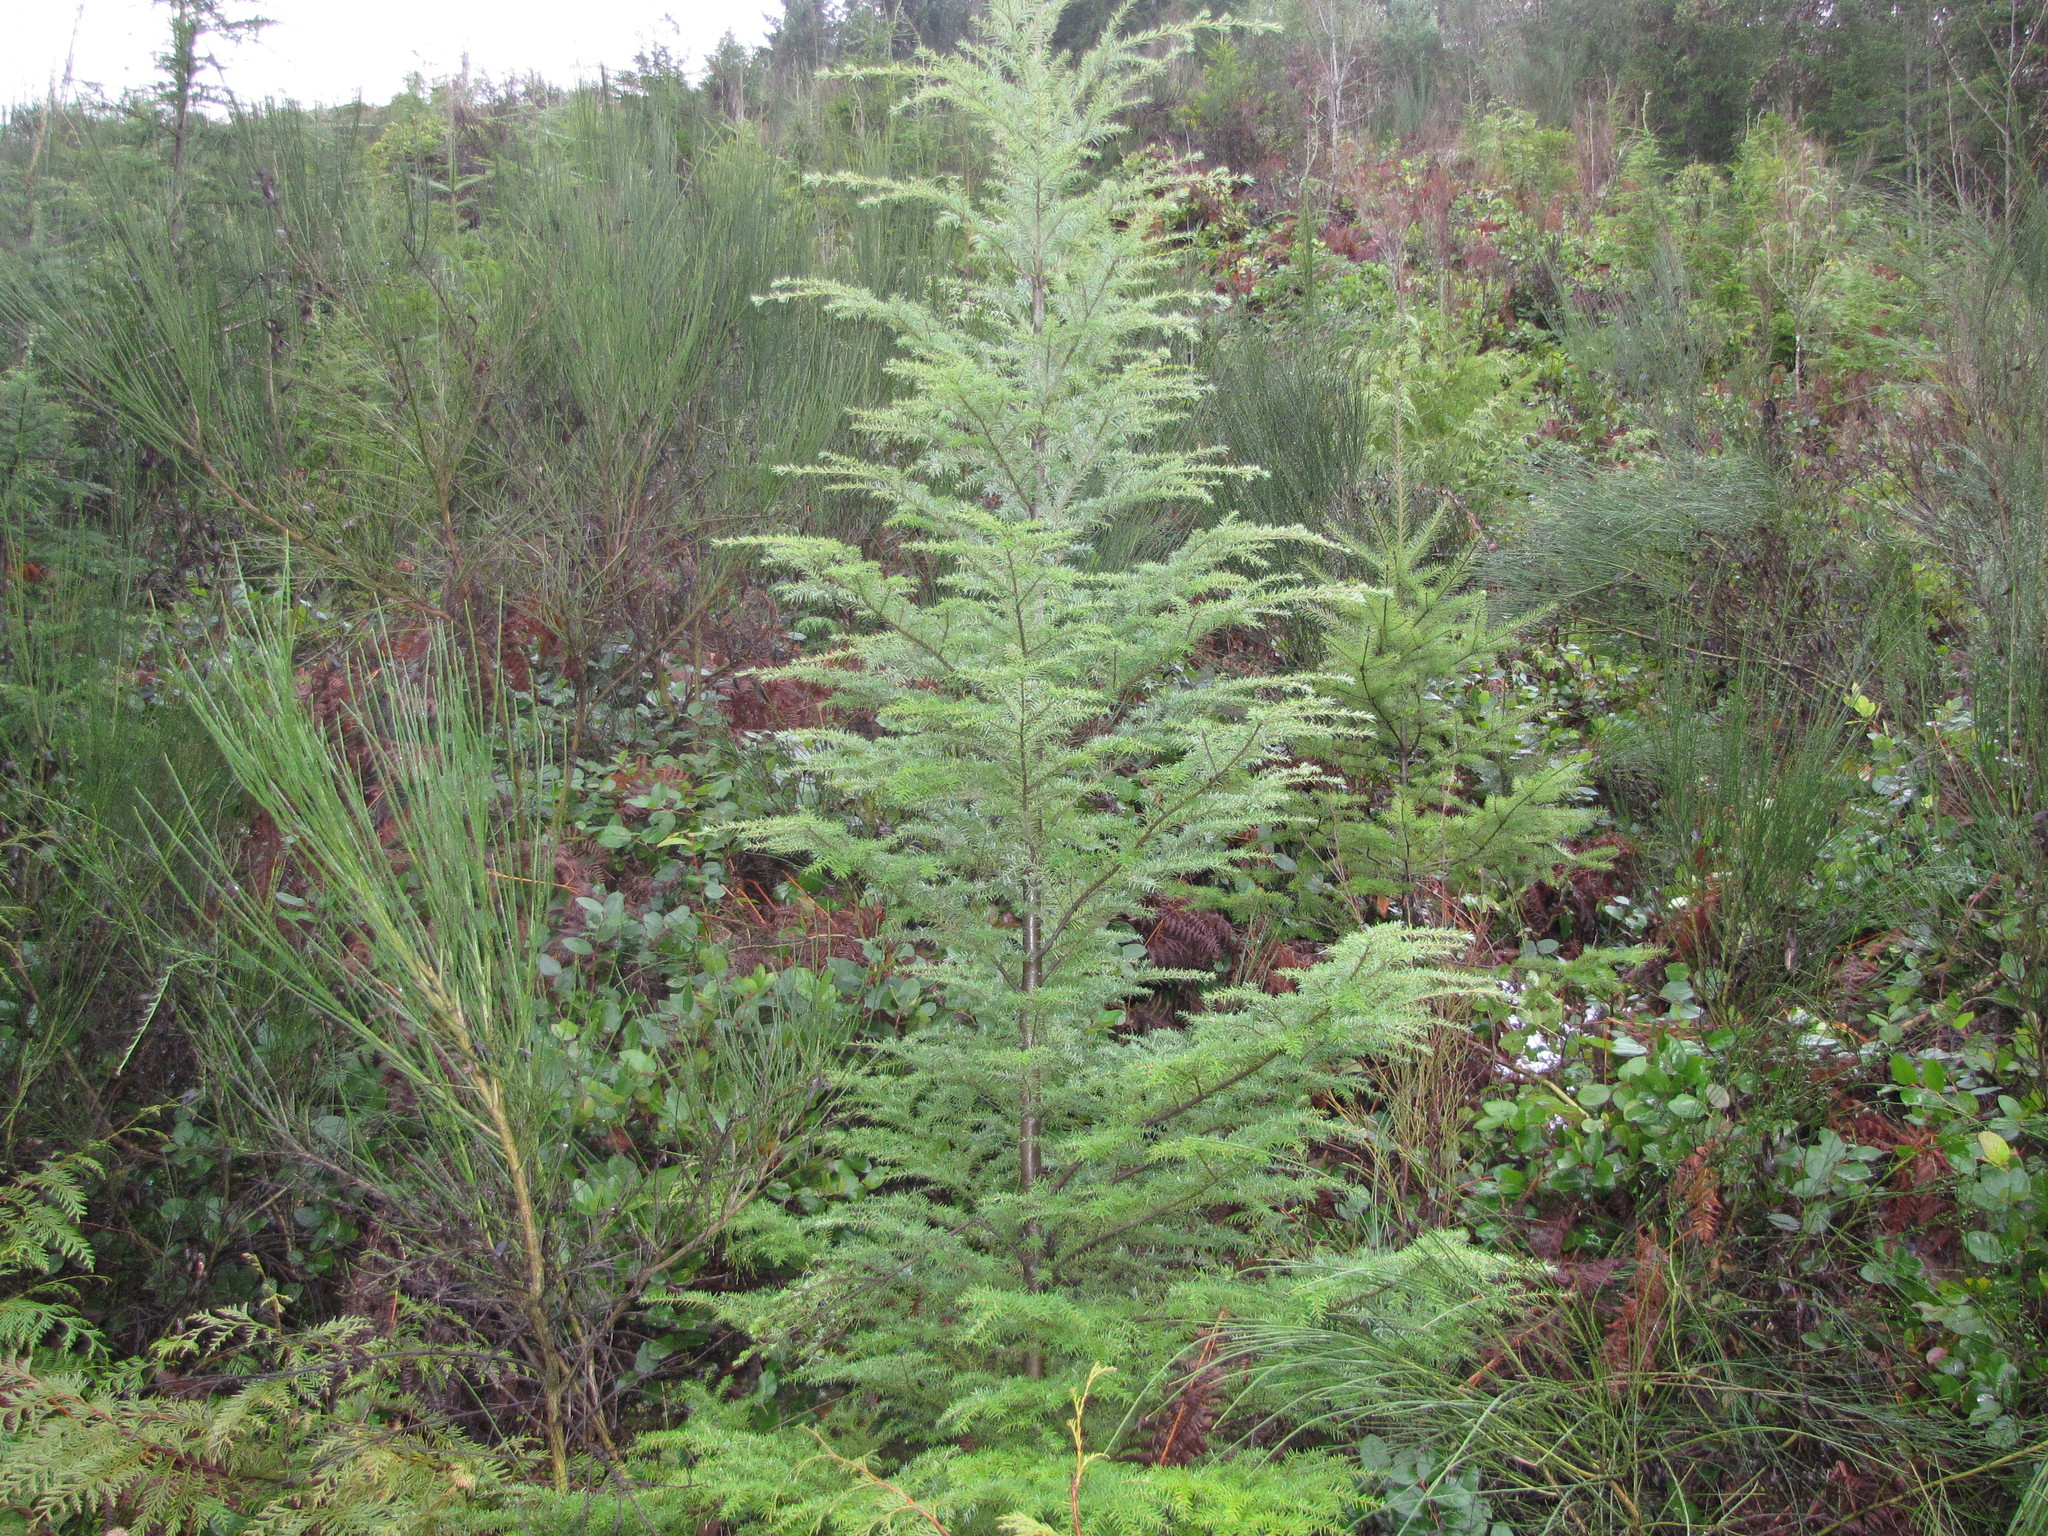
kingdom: Plantae
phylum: Tracheophyta
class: Pinopsida
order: Pinales
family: Pinaceae
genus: Tsuga
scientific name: Tsuga heterophylla
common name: Western hemlock
